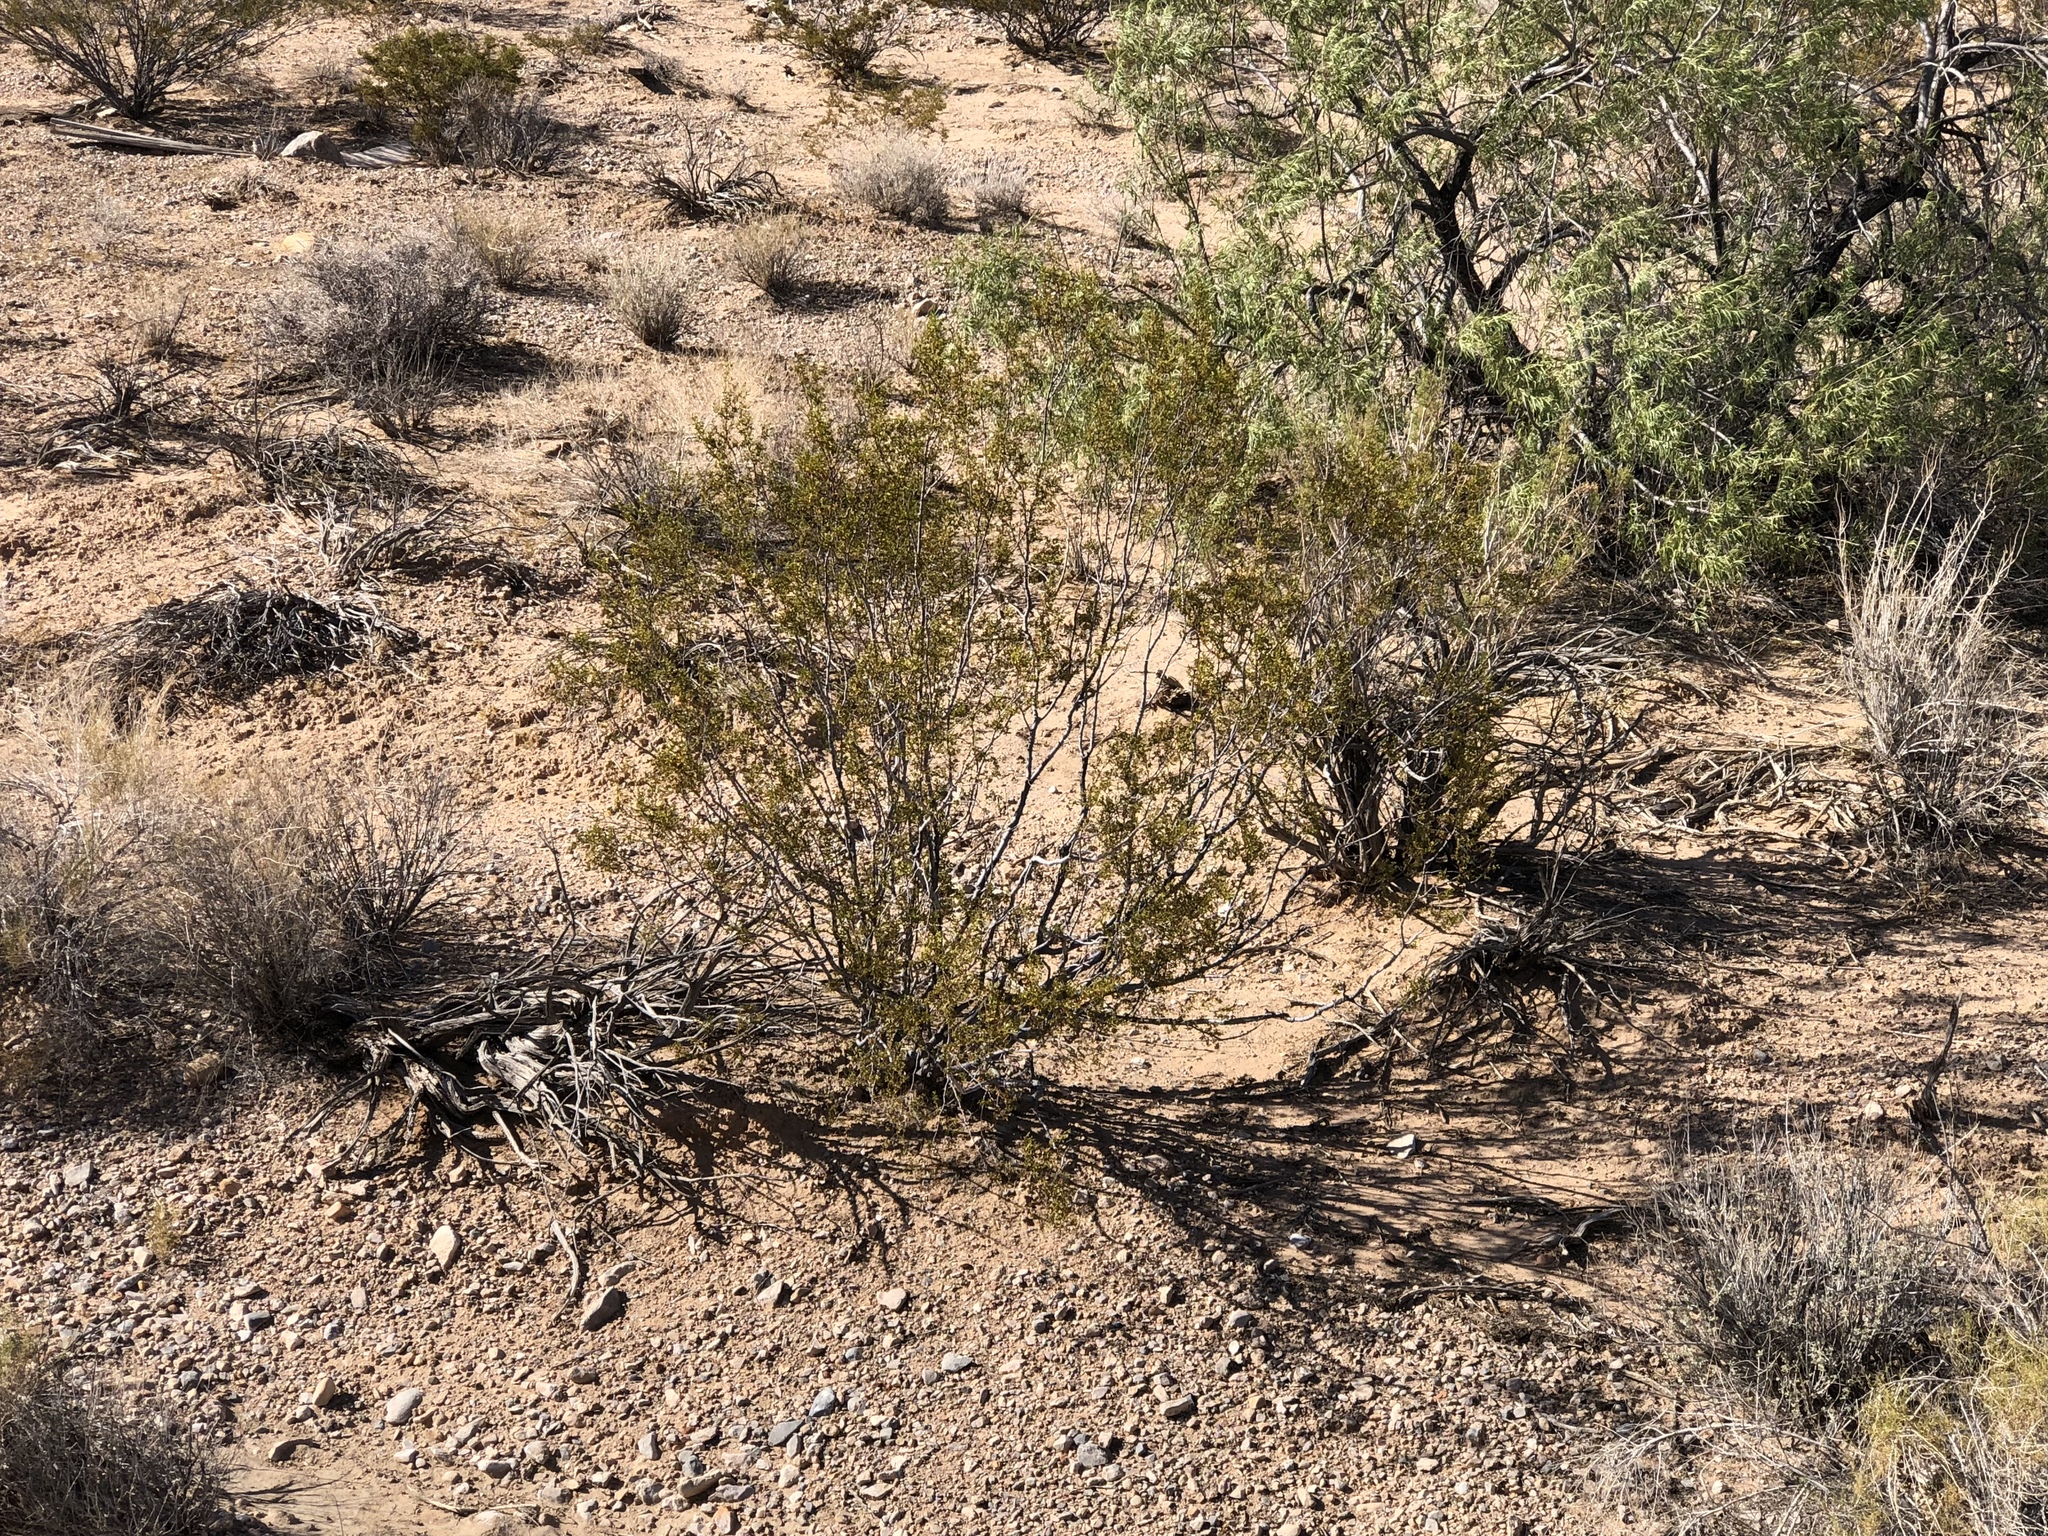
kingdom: Plantae
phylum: Tracheophyta
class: Magnoliopsida
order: Zygophyllales
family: Zygophyllaceae
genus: Larrea
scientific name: Larrea tridentata
